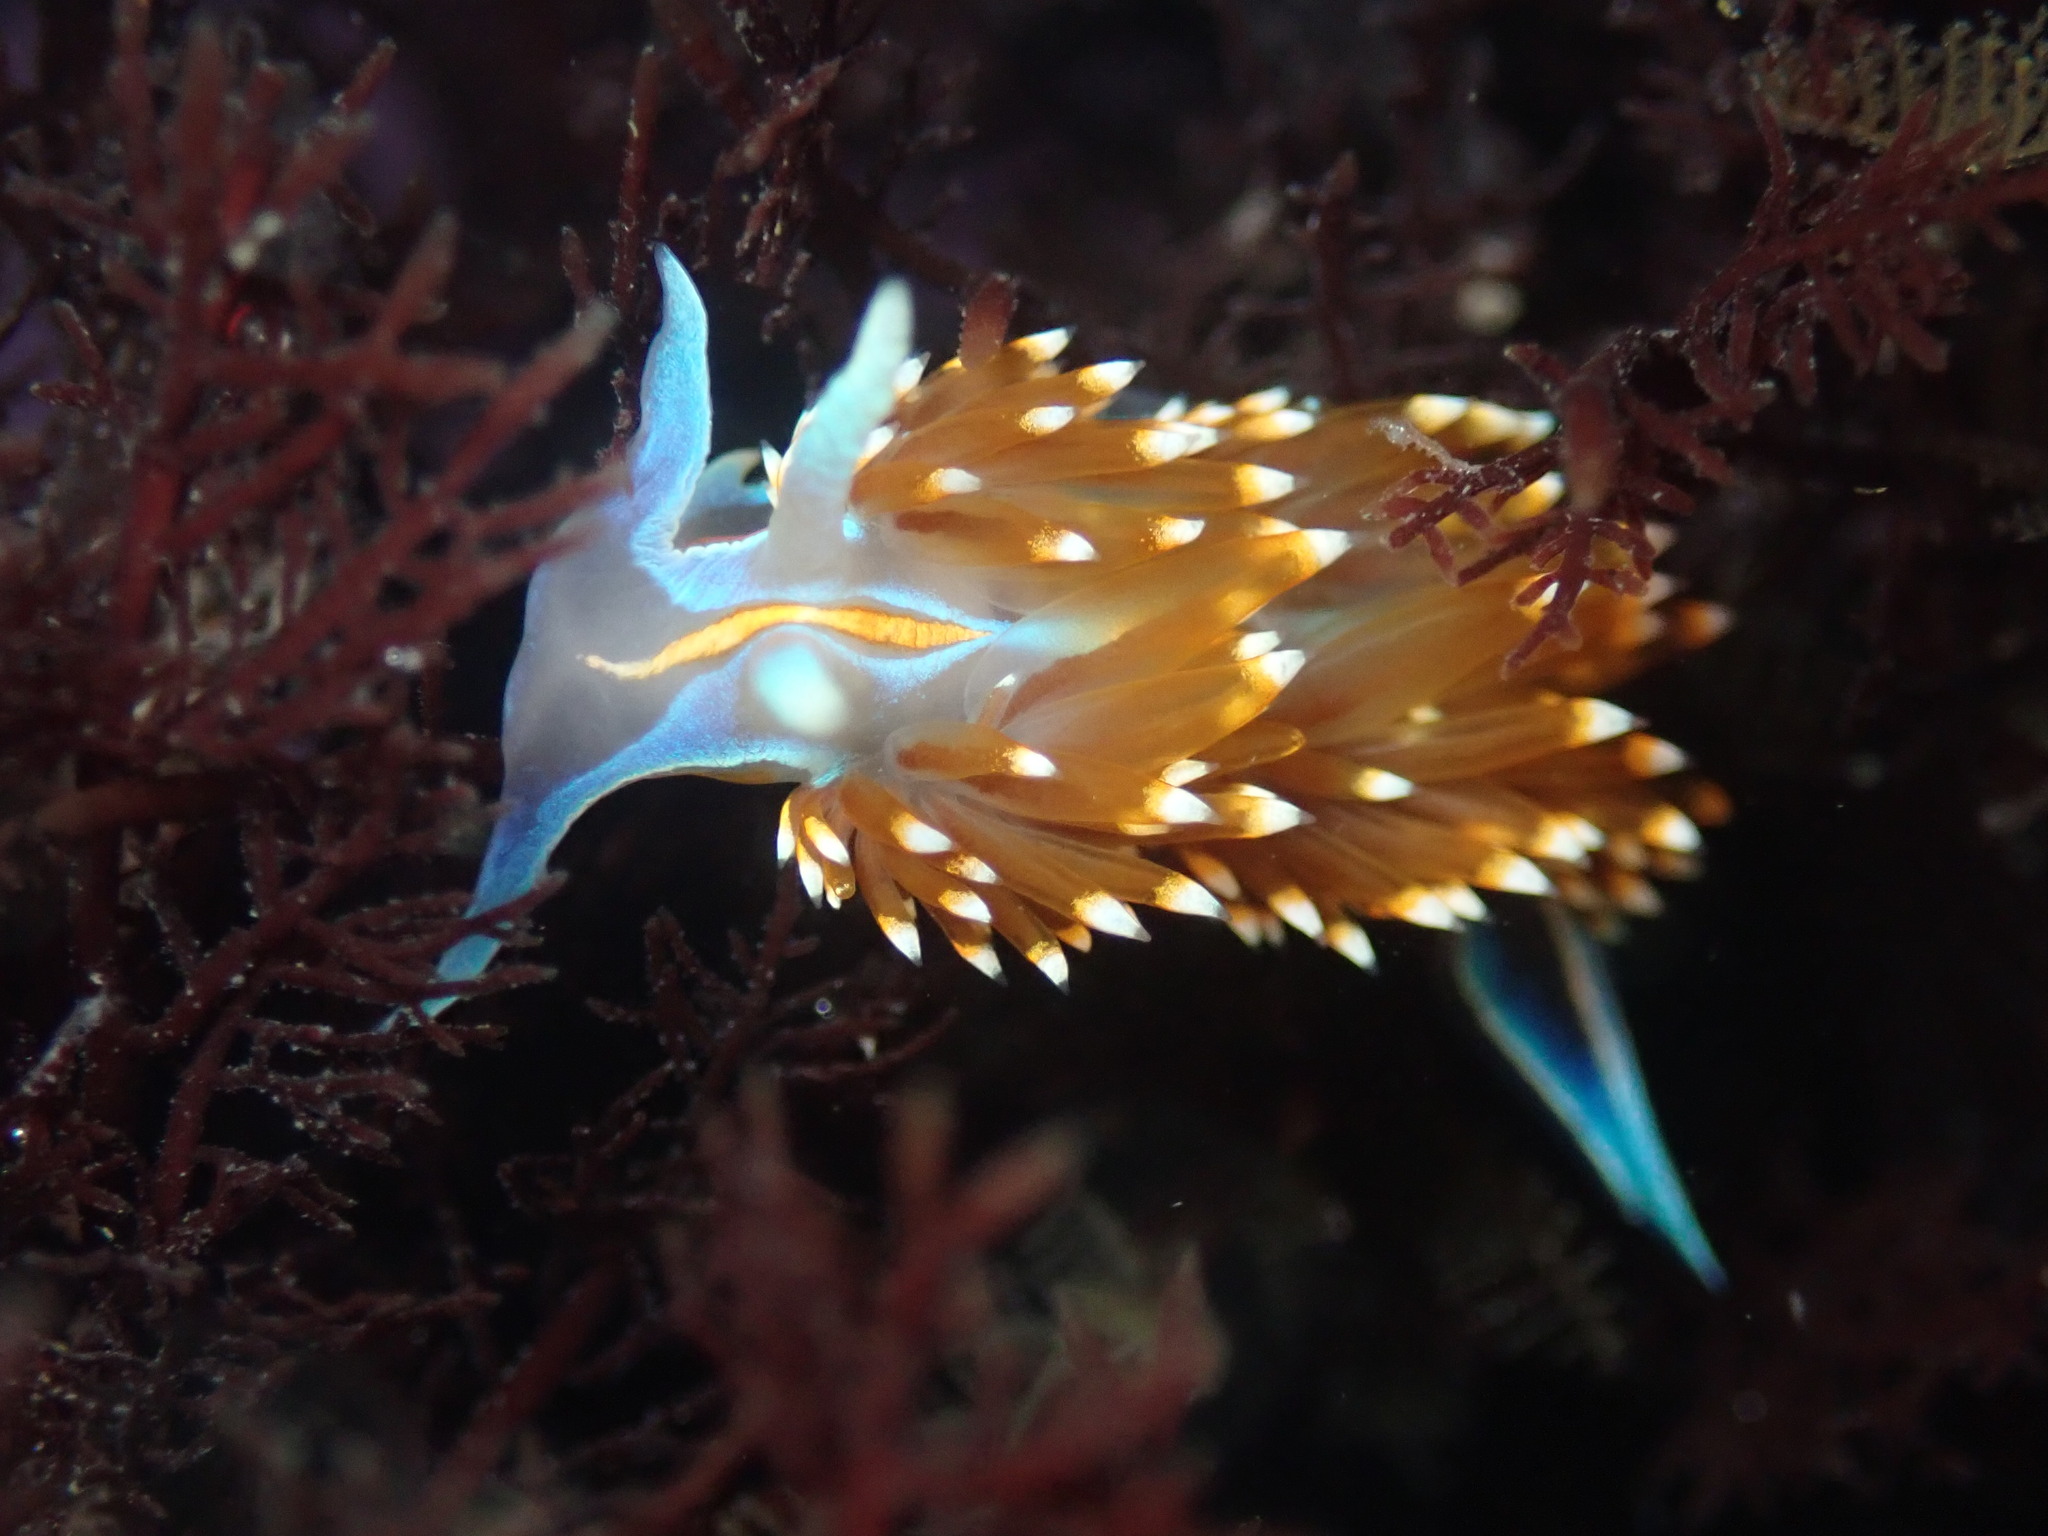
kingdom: Animalia
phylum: Mollusca
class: Gastropoda
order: Nudibranchia
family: Myrrhinidae
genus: Hermissenda
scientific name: Hermissenda opalescens
